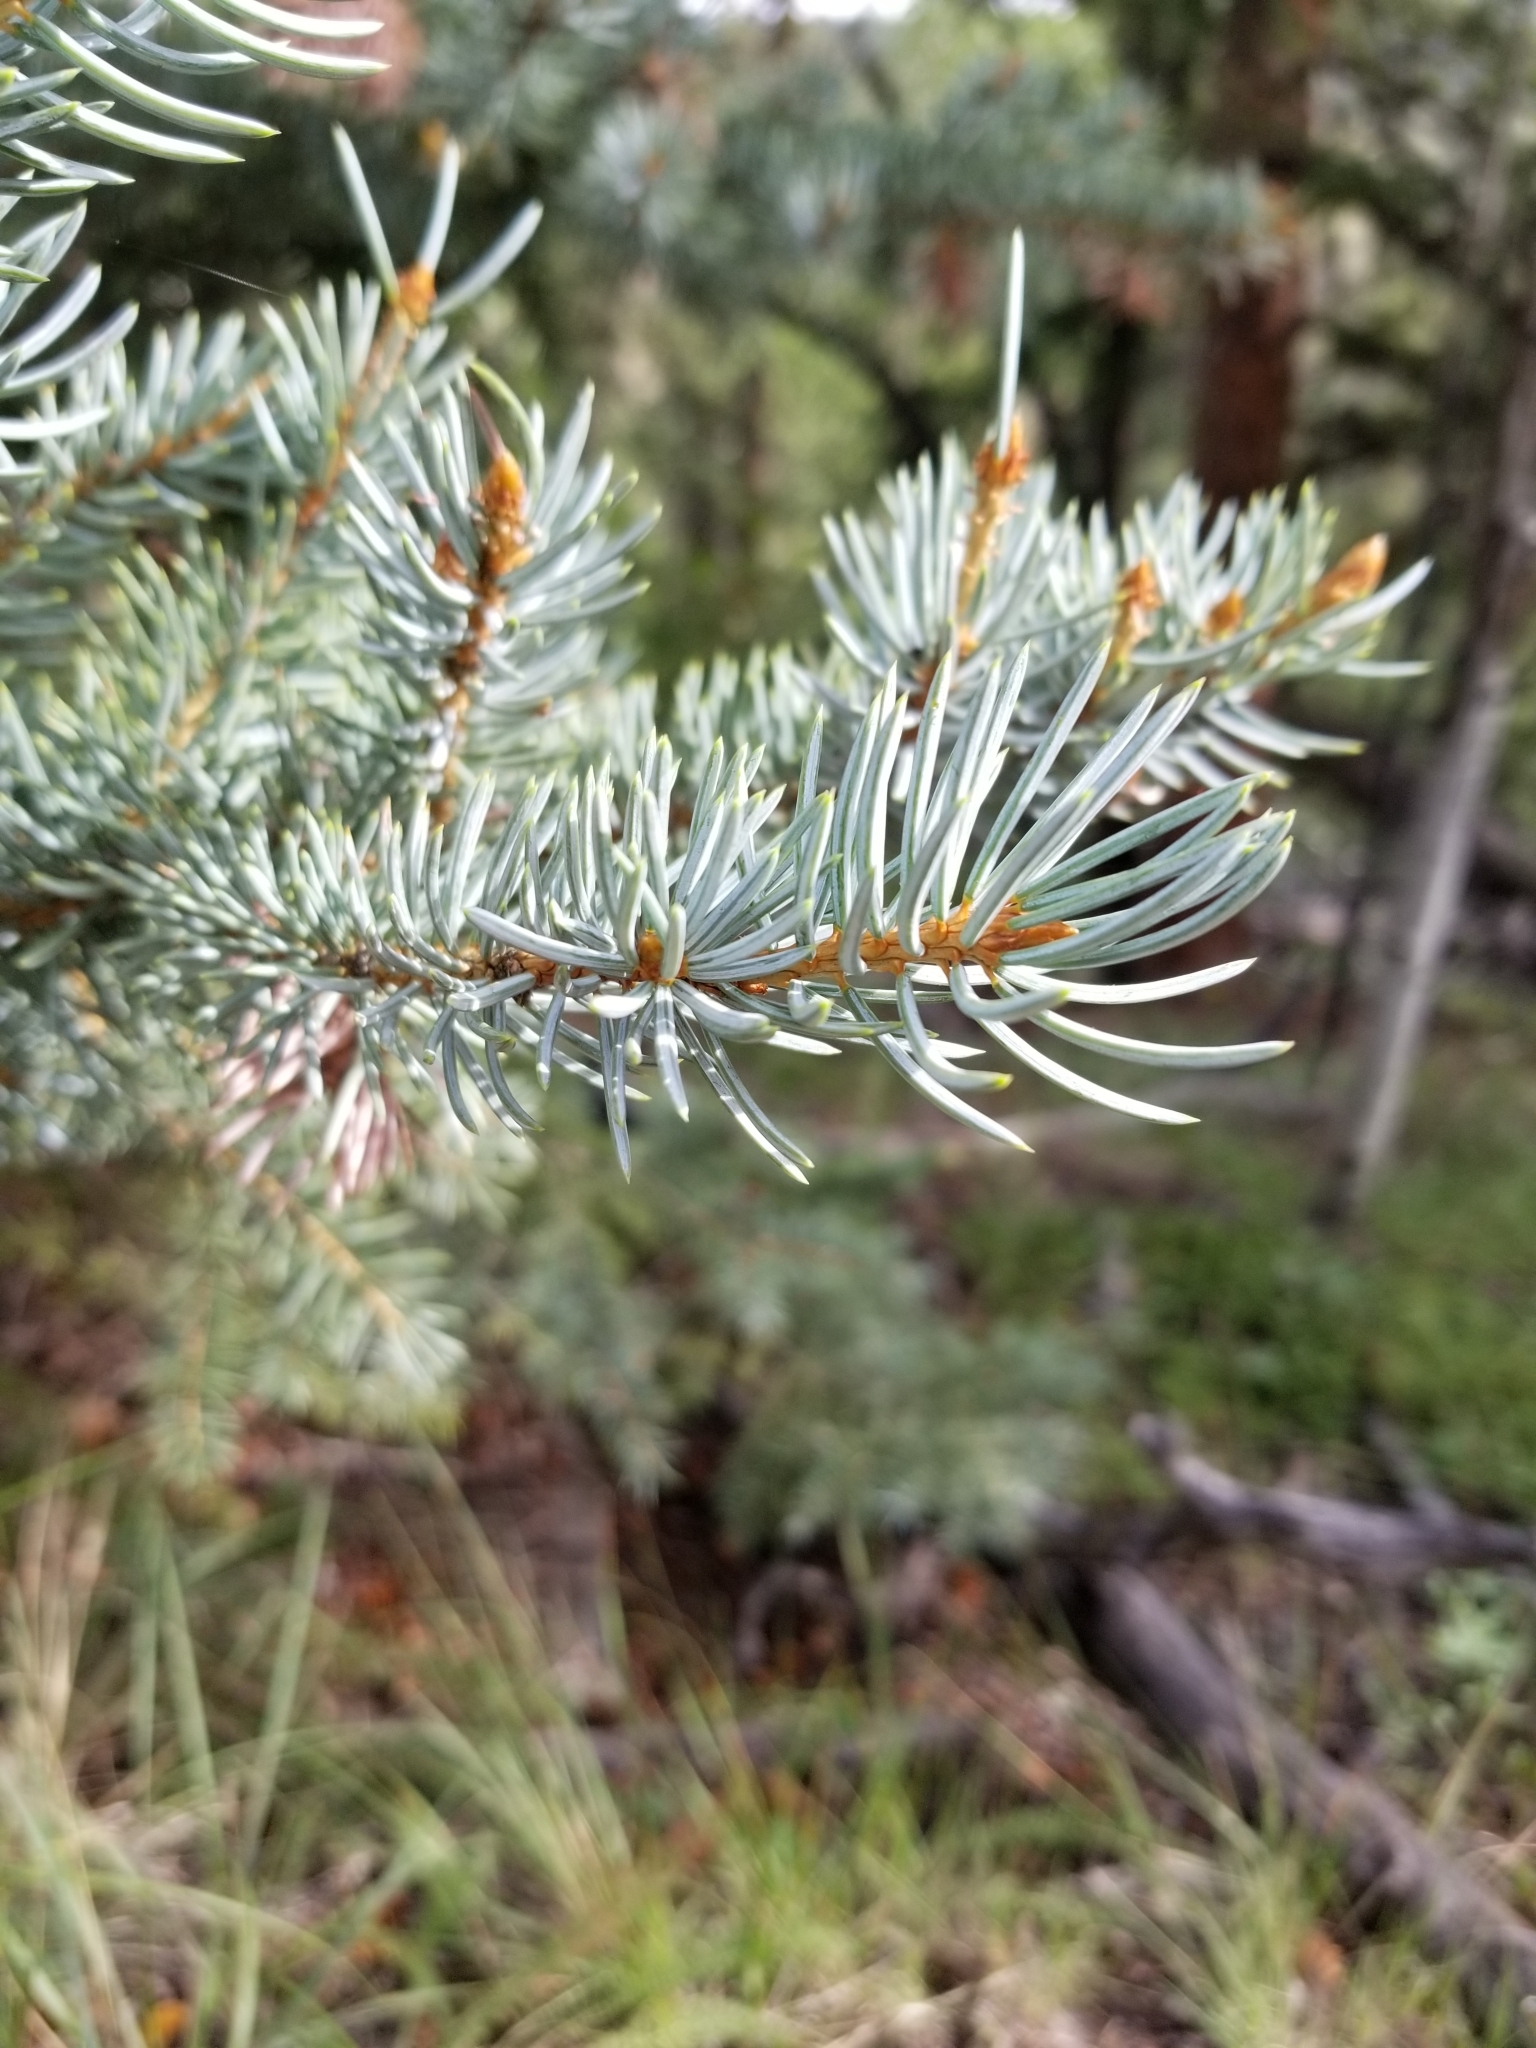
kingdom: Plantae
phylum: Tracheophyta
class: Pinopsida
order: Pinales
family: Pinaceae
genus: Picea
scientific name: Picea pungens
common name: Colorado spruce
